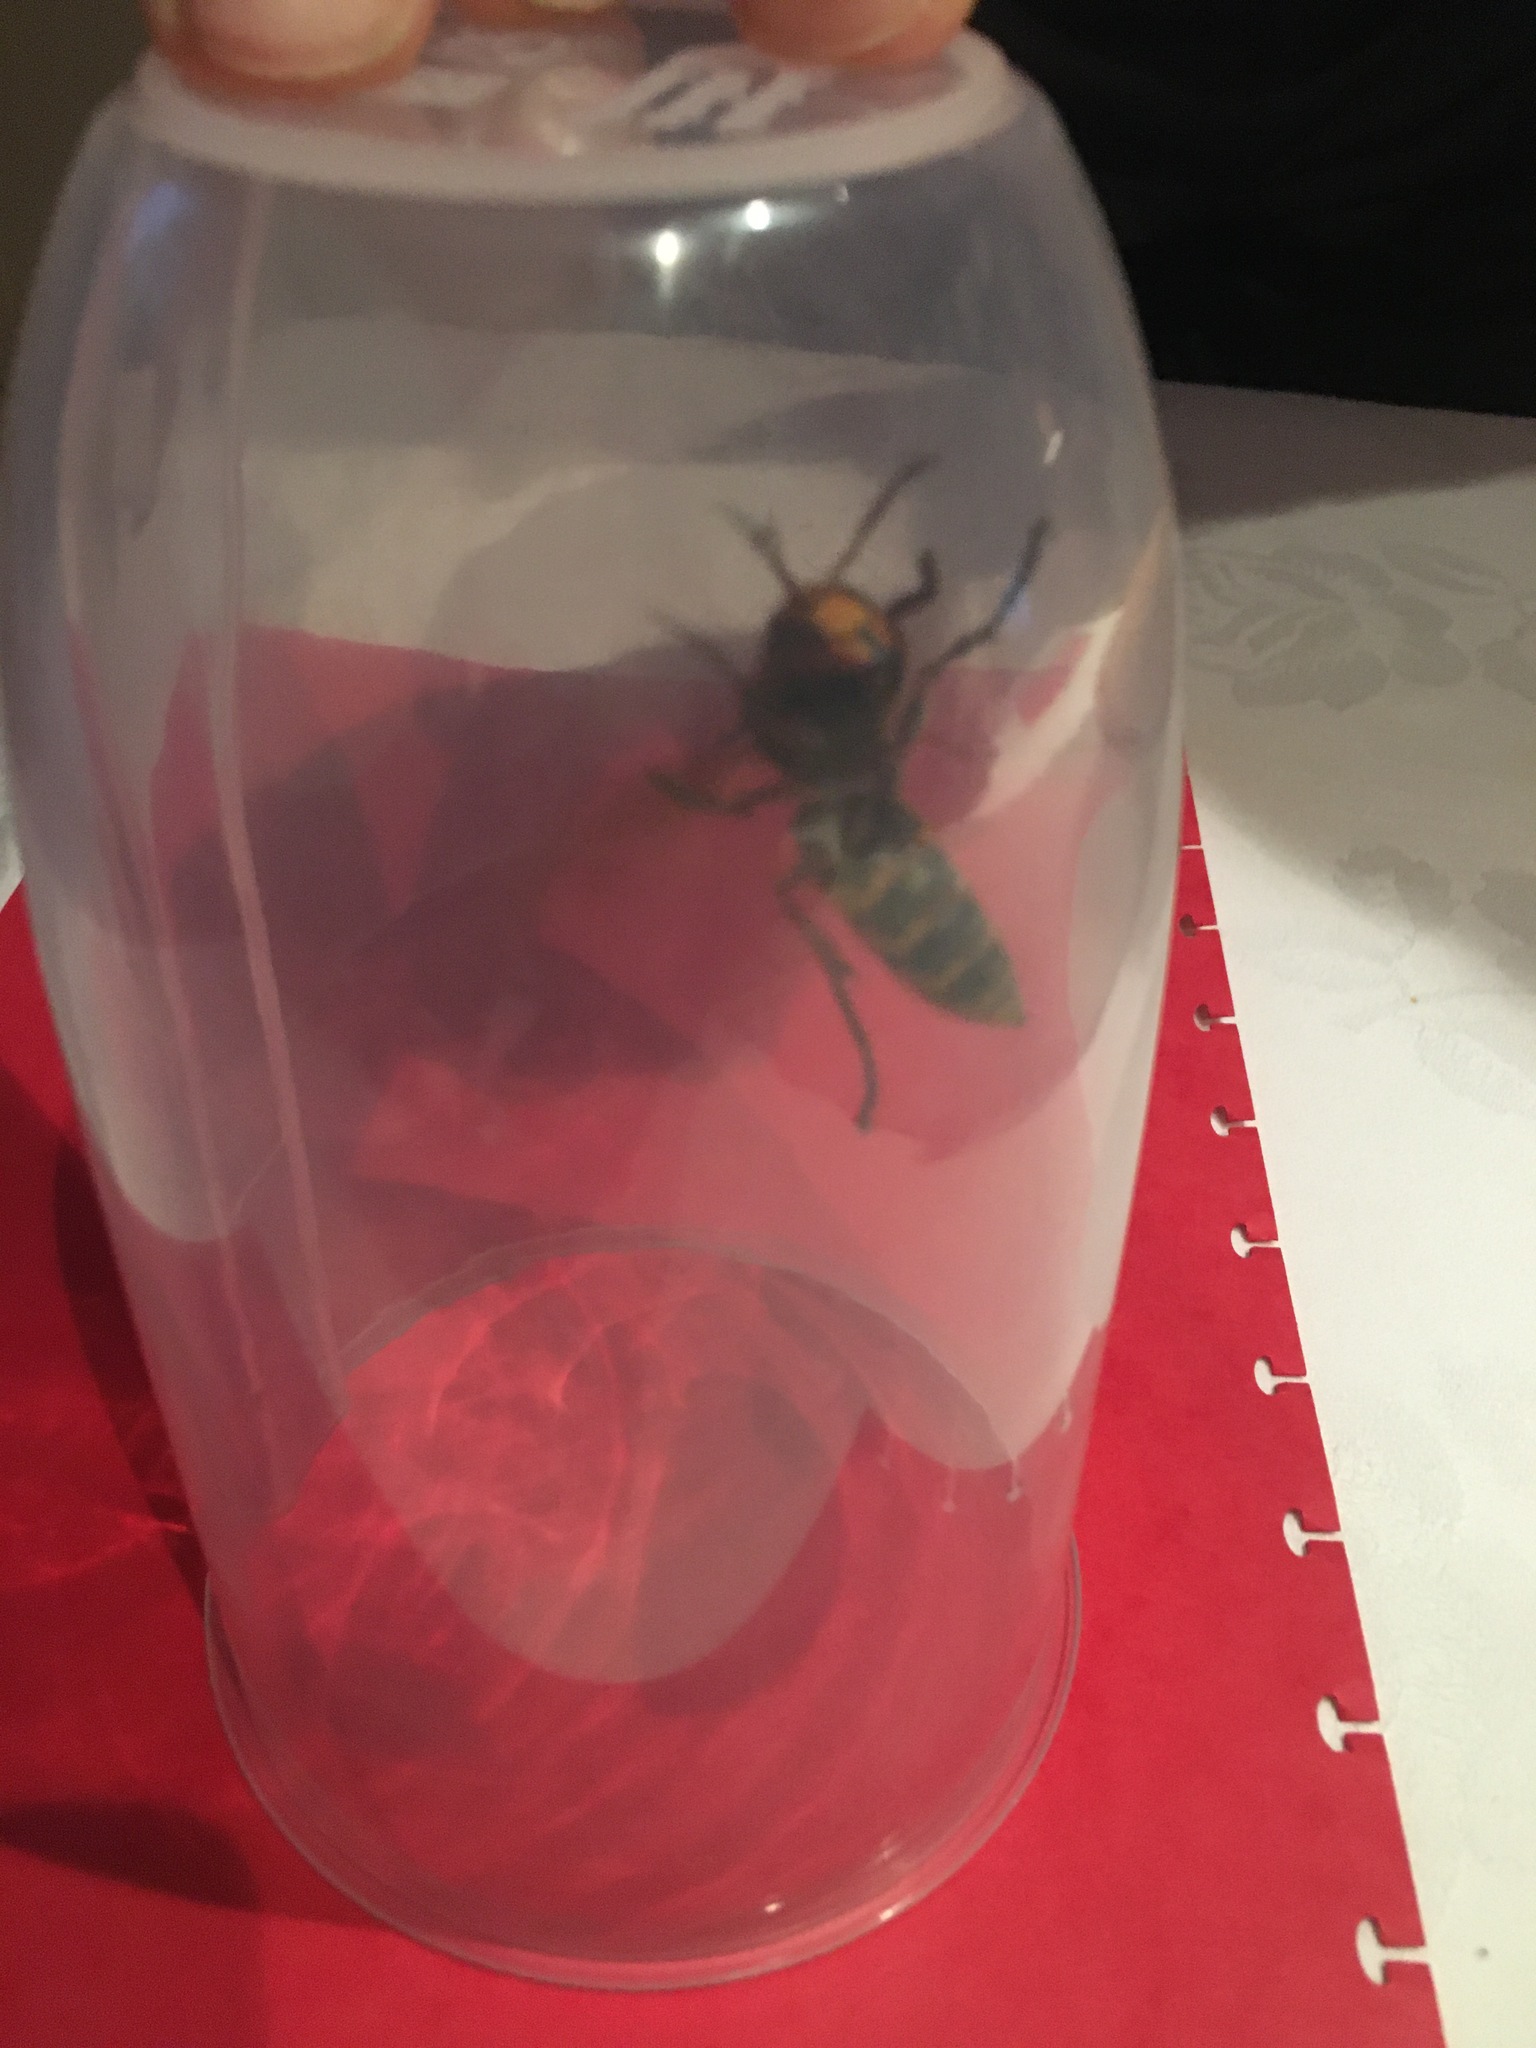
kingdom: Animalia
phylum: Arthropoda
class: Insecta
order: Hymenoptera
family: Vespidae
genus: Vespa
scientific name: Vespa crabro
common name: Hornet
